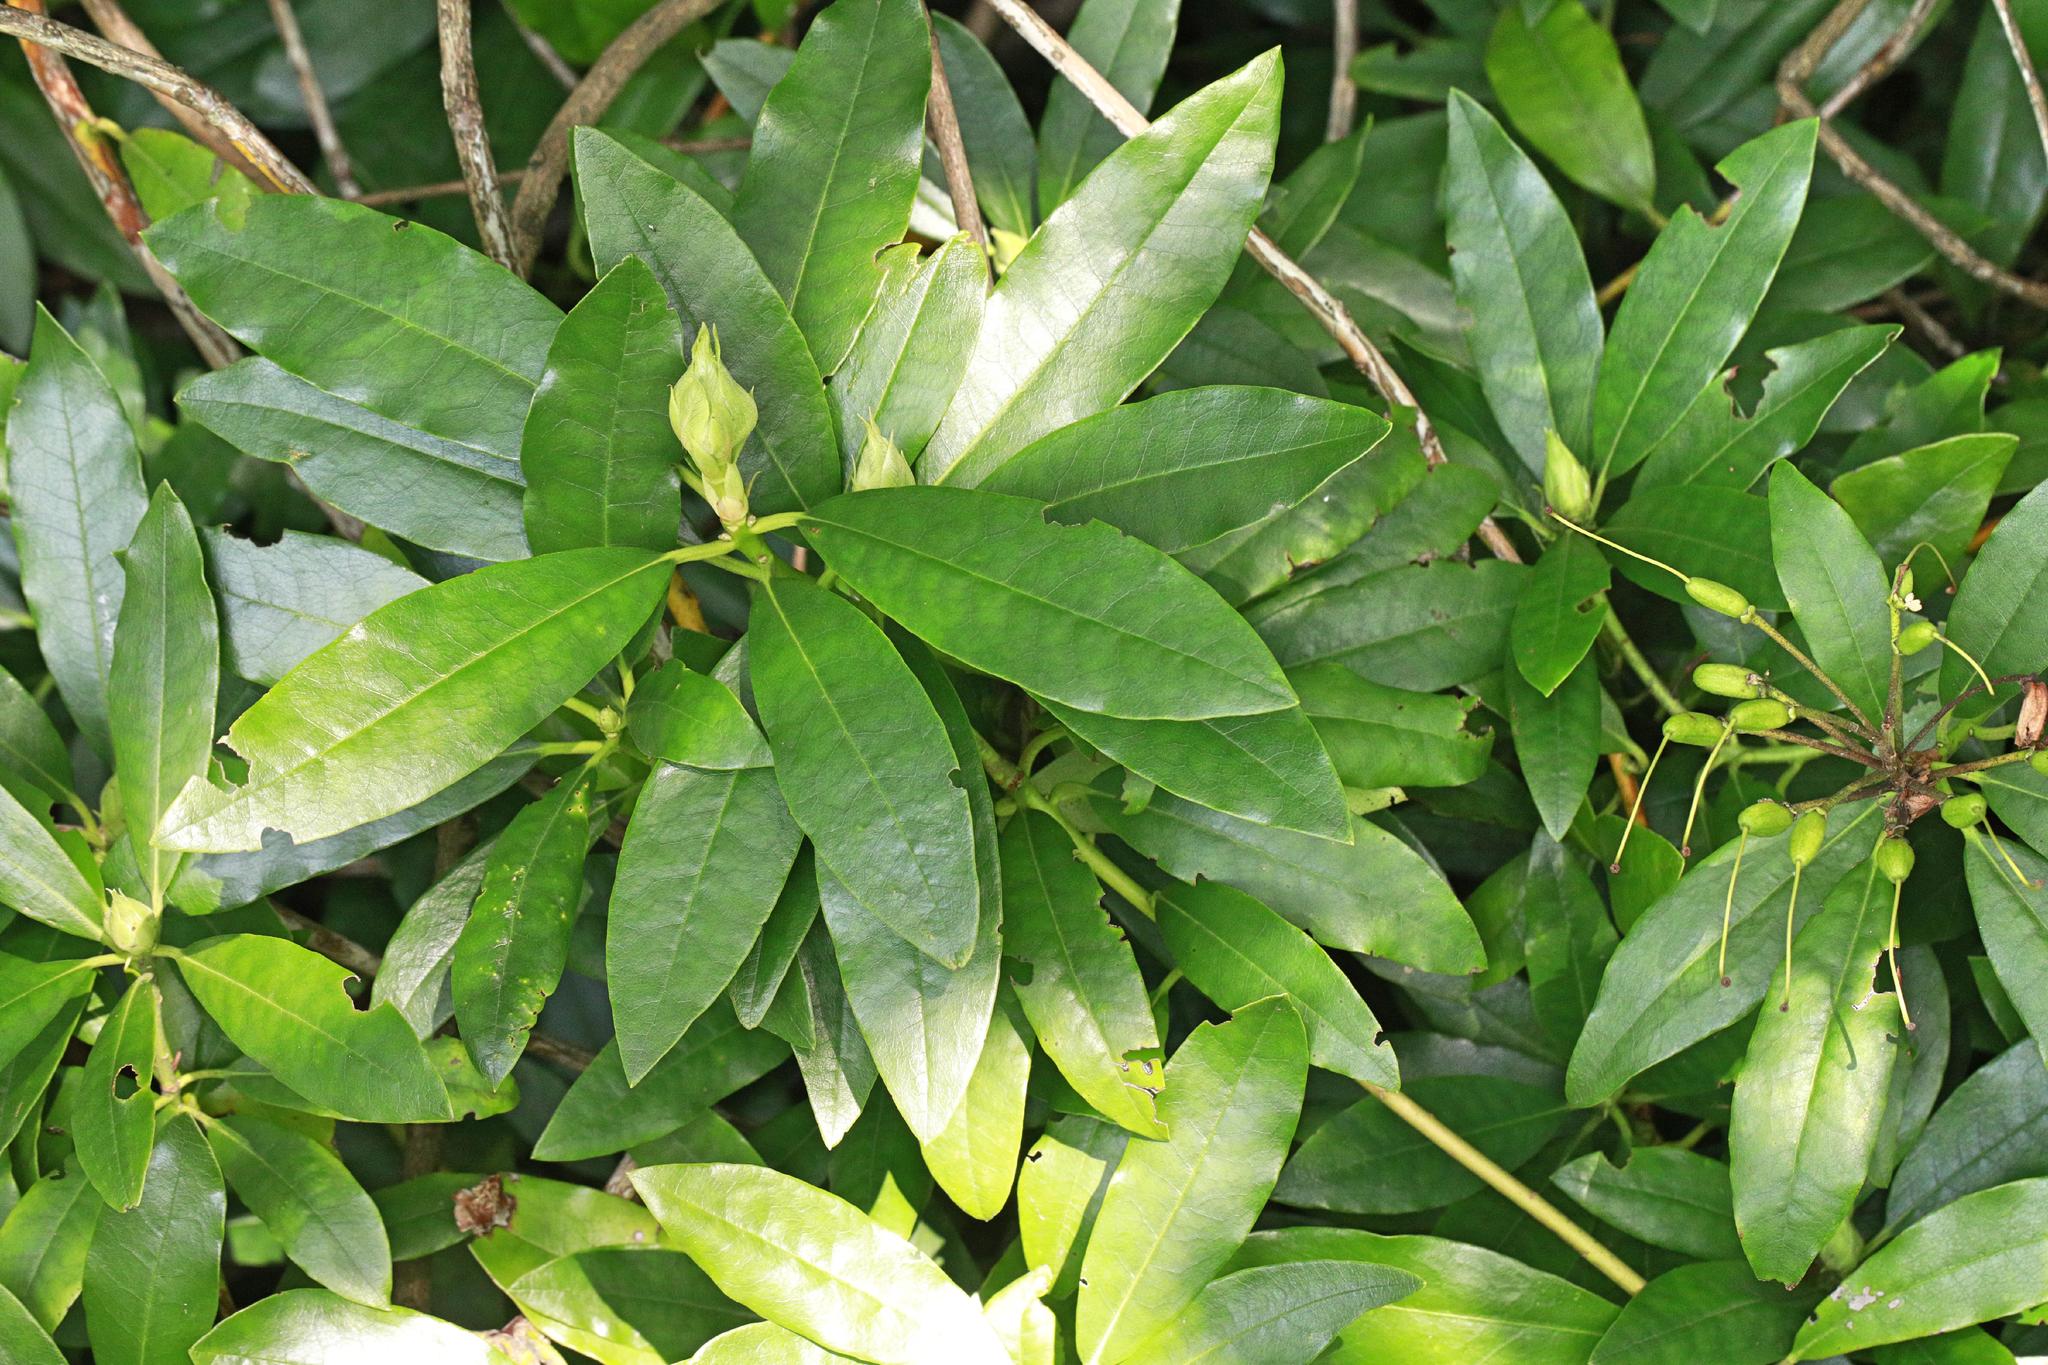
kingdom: Plantae
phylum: Tracheophyta
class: Magnoliopsida
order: Ericales
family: Ericaceae
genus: Rhododendron
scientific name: Rhododendron ponticum
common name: Rhododendron
